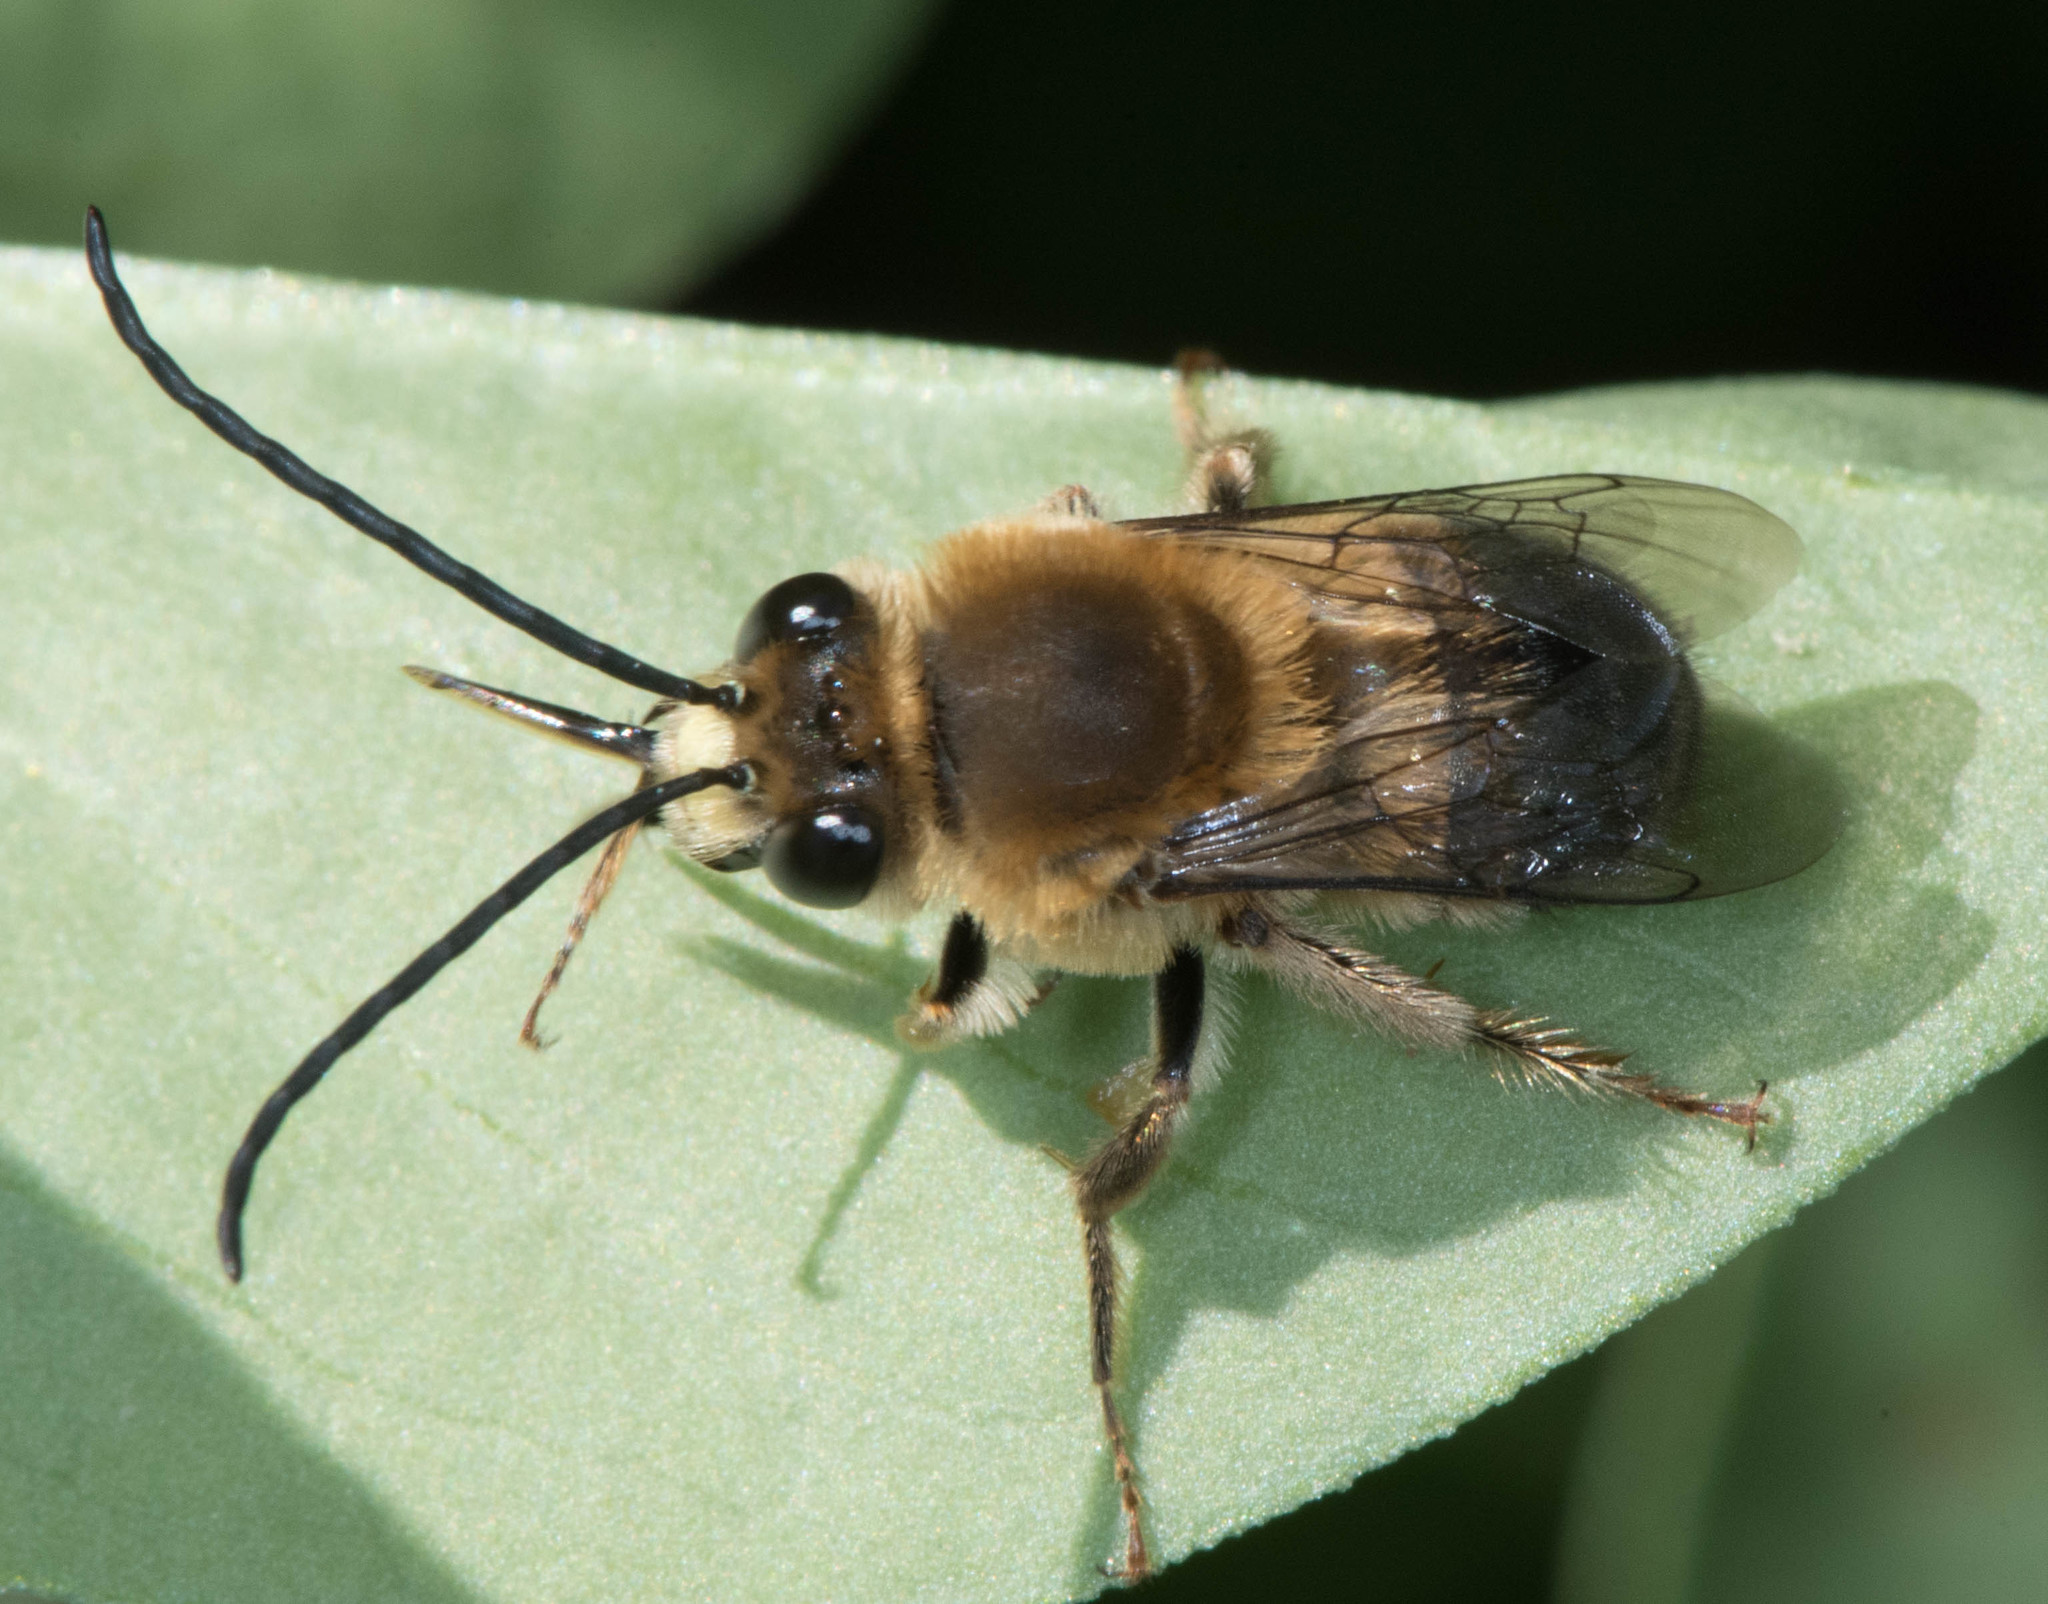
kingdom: Animalia
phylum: Arthropoda
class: Insecta
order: Hymenoptera
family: Apidae
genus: Eucera
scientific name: Eucera frater
